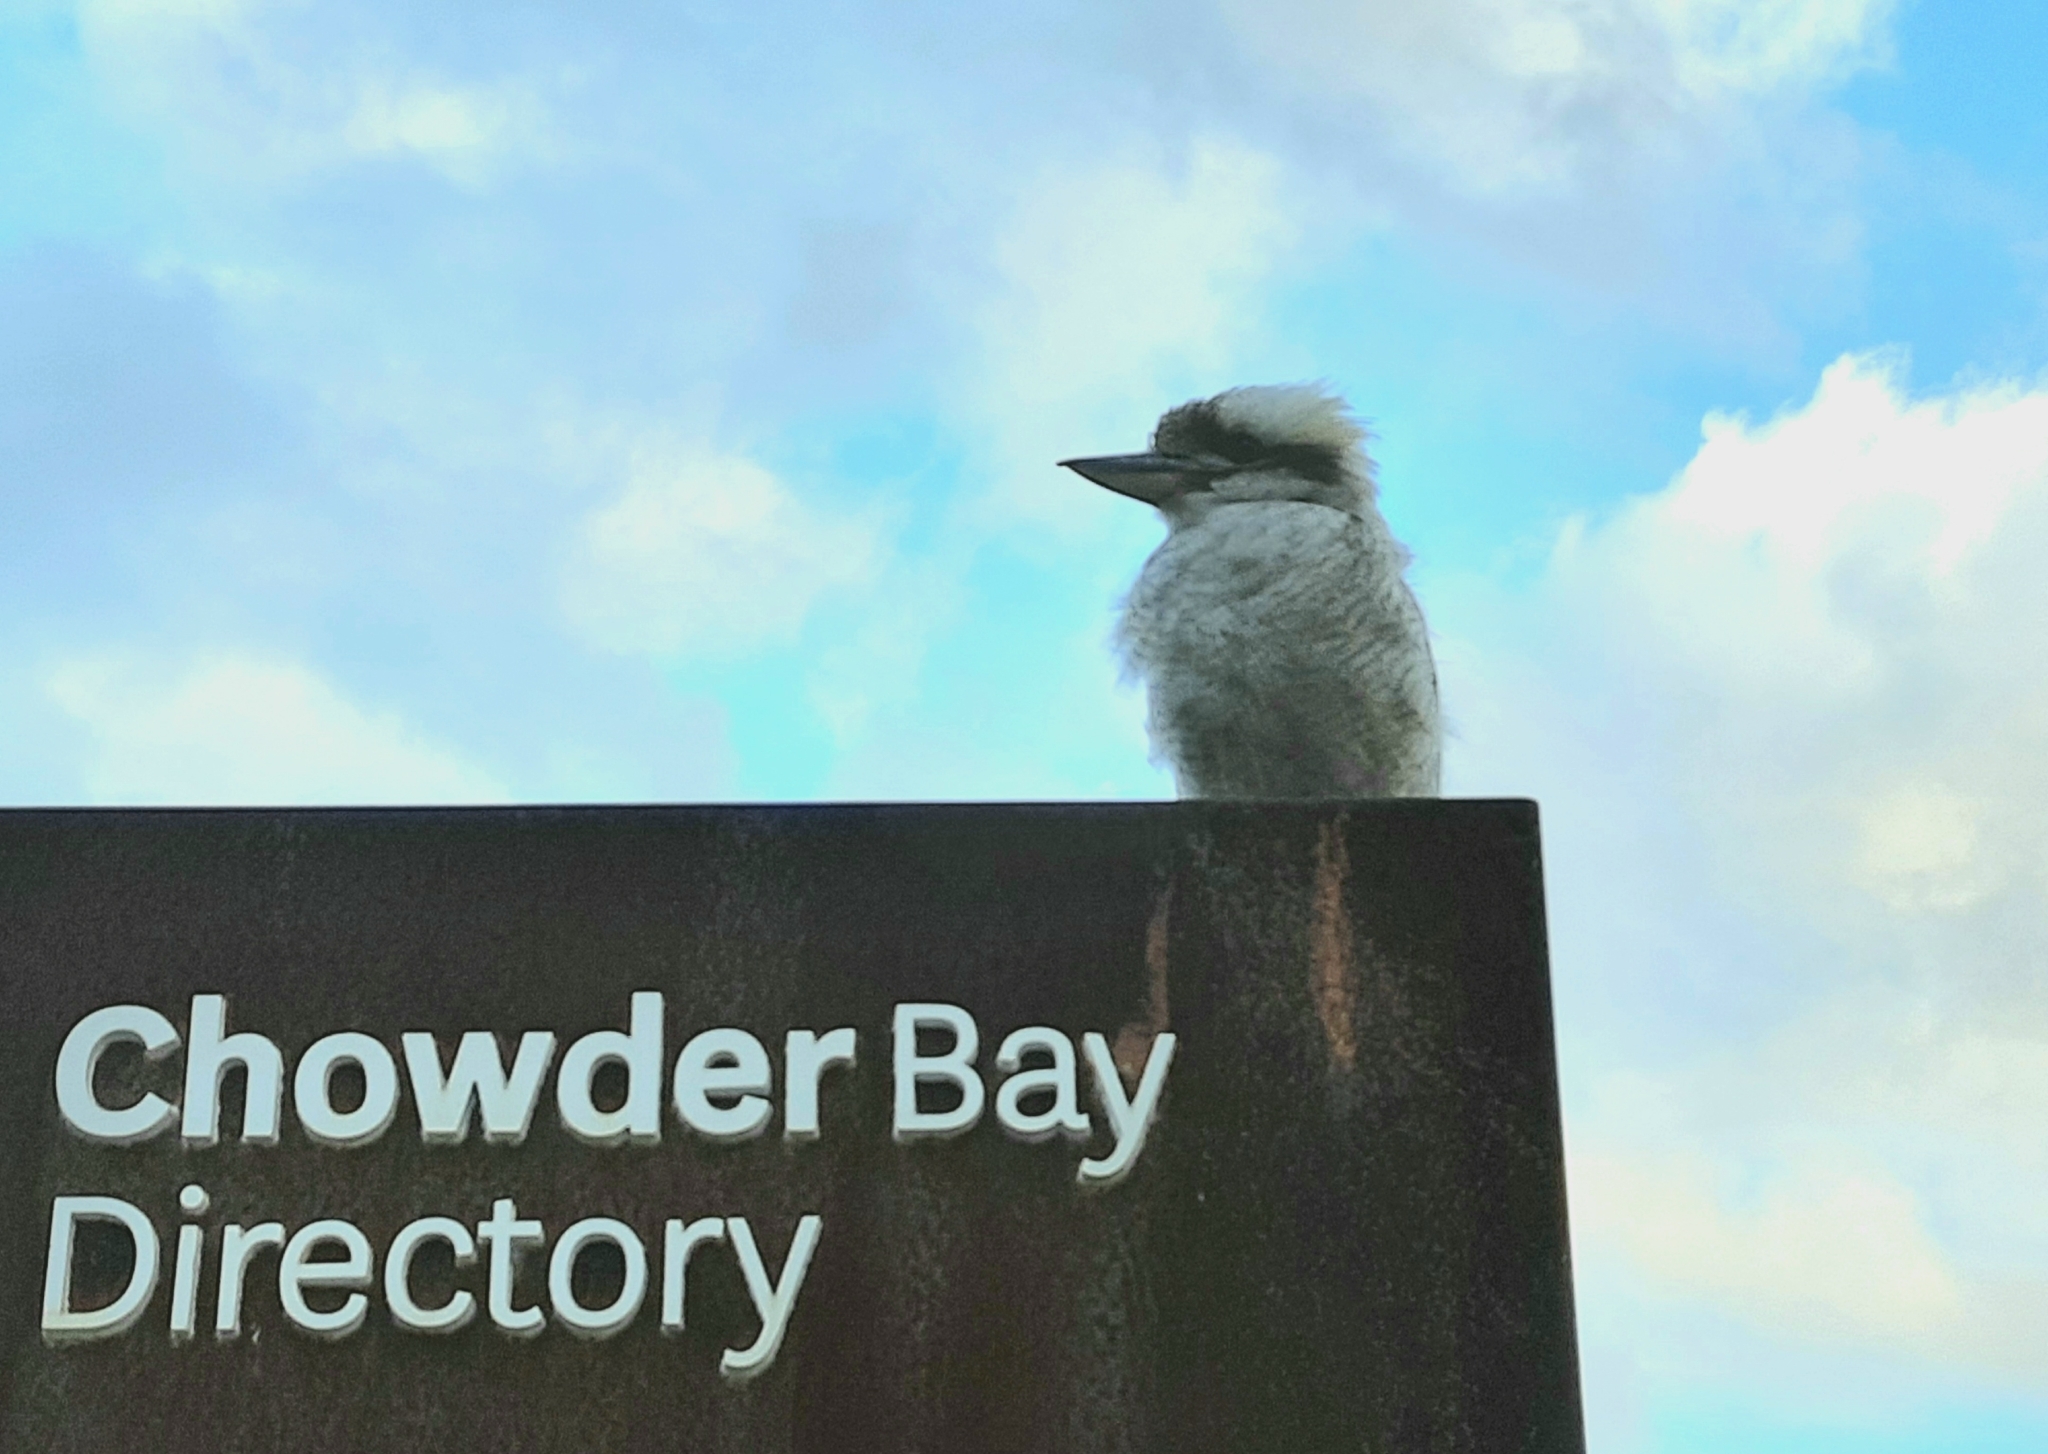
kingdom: Animalia
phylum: Chordata
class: Aves
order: Coraciiformes
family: Alcedinidae
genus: Dacelo
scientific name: Dacelo novaeguineae
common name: Laughing kookaburra
